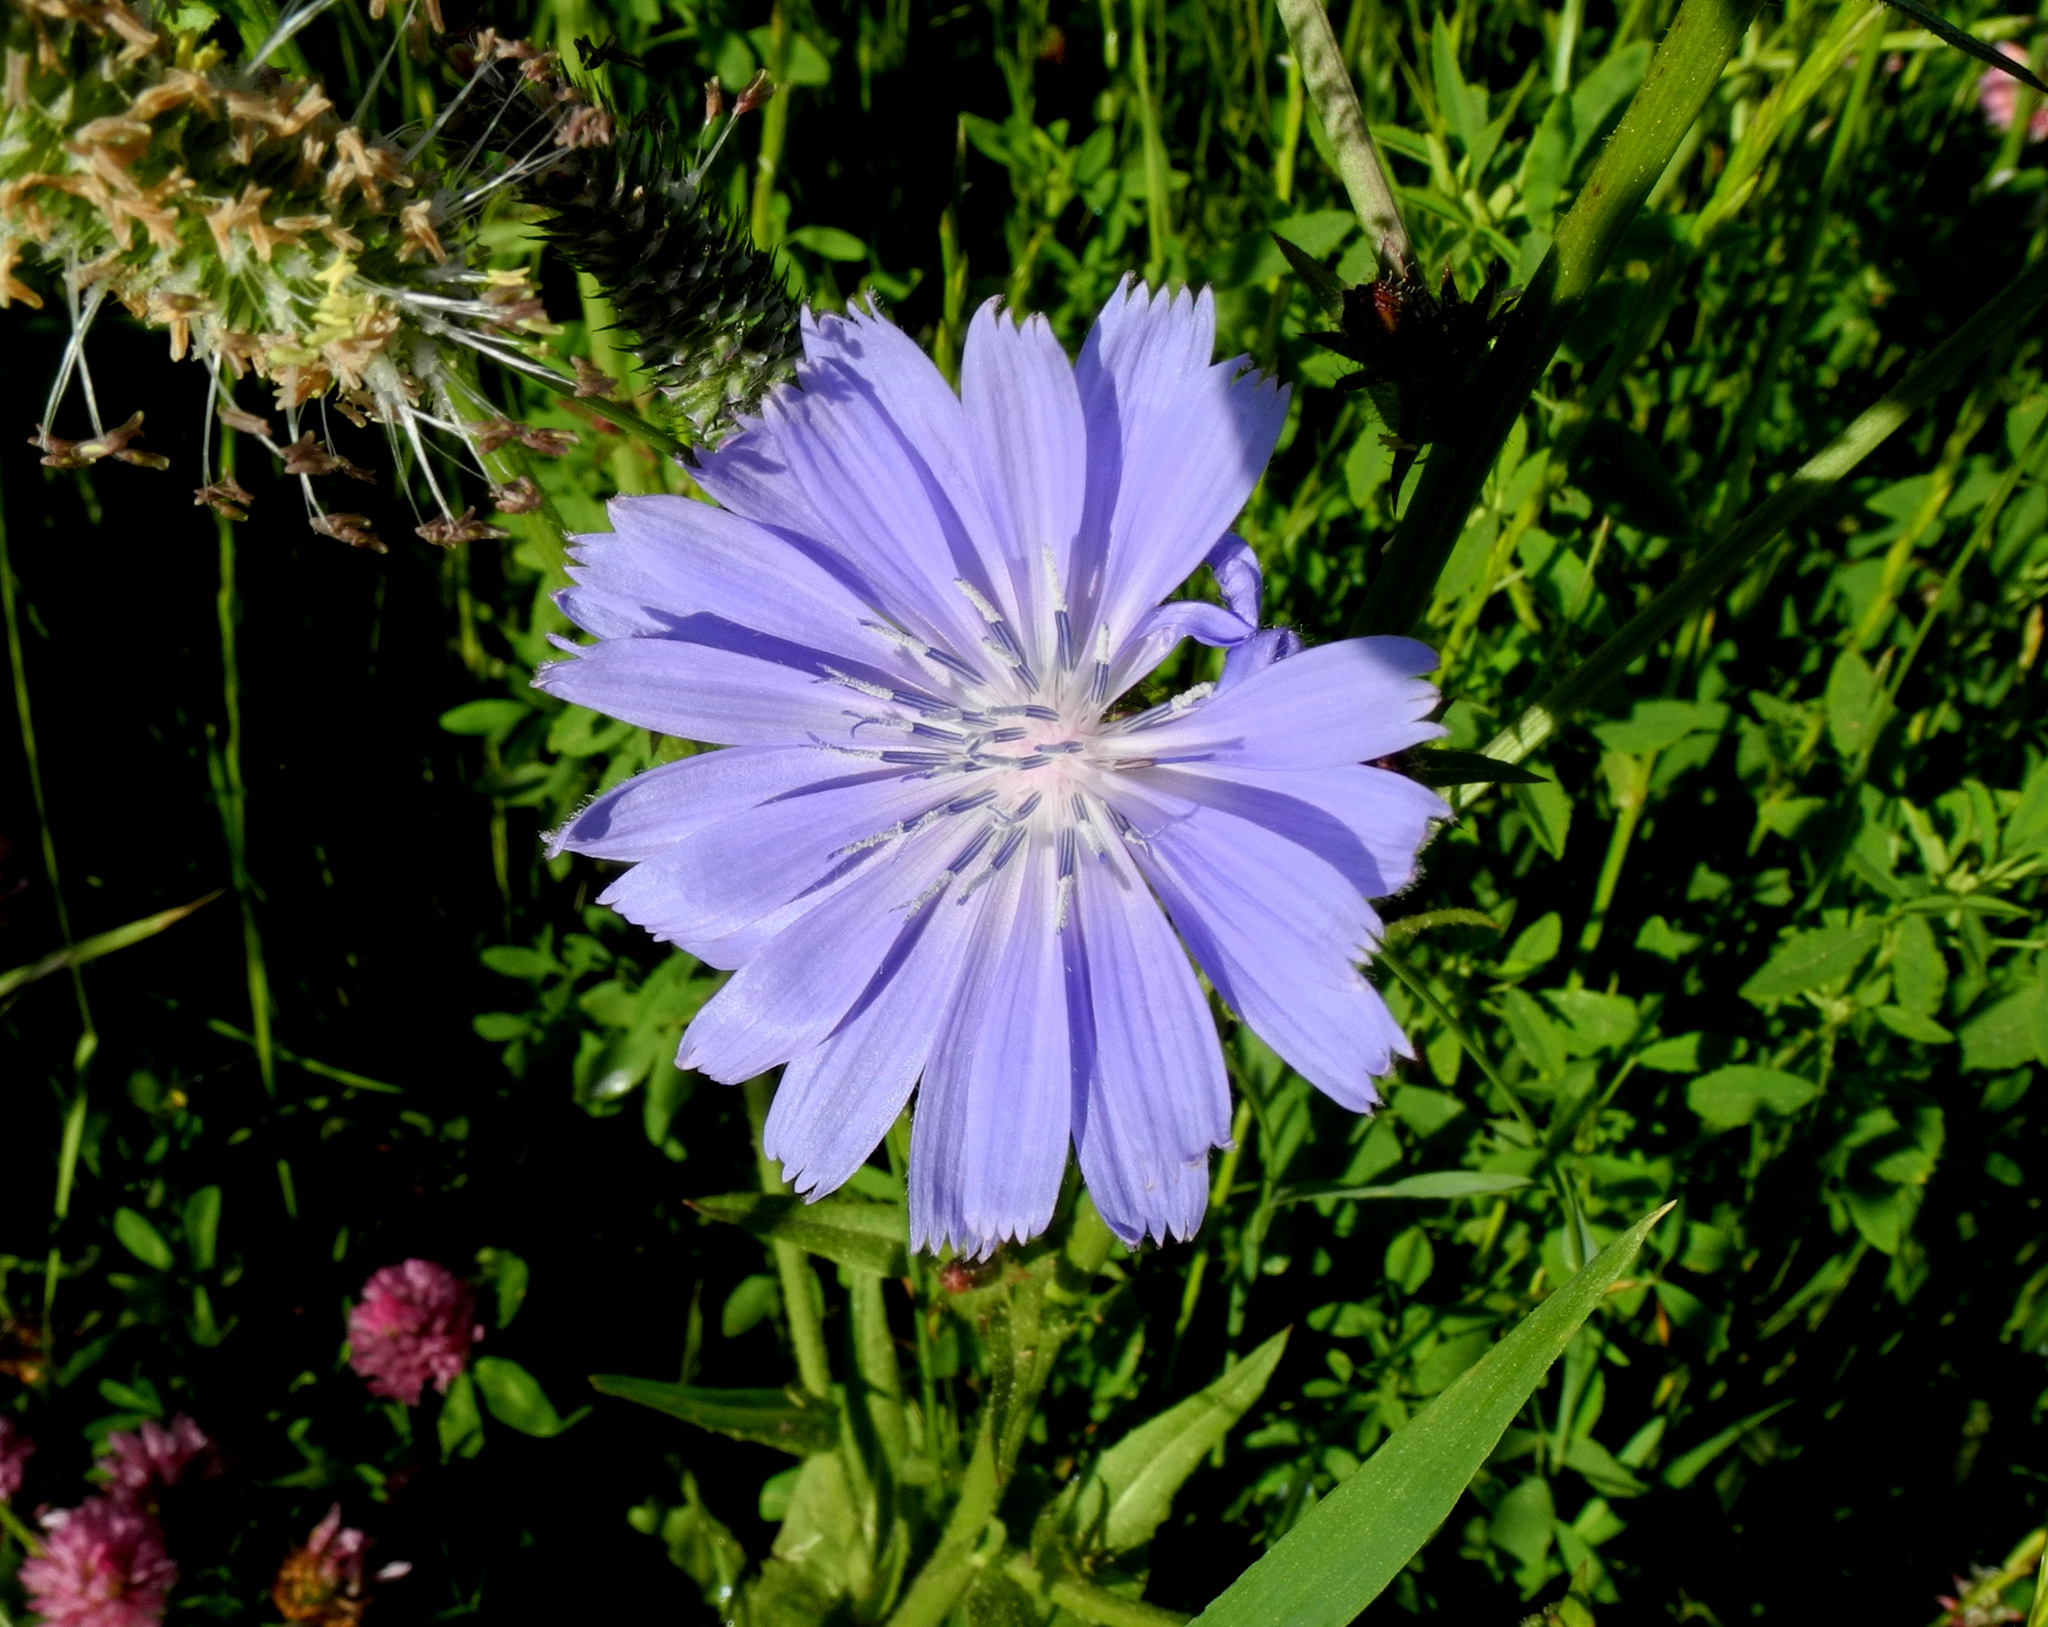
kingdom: Plantae
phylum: Tracheophyta
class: Magnoliopsida
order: Asterales
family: Asteraceae
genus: Cichorium
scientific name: Cichorium intybus
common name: Chicory
